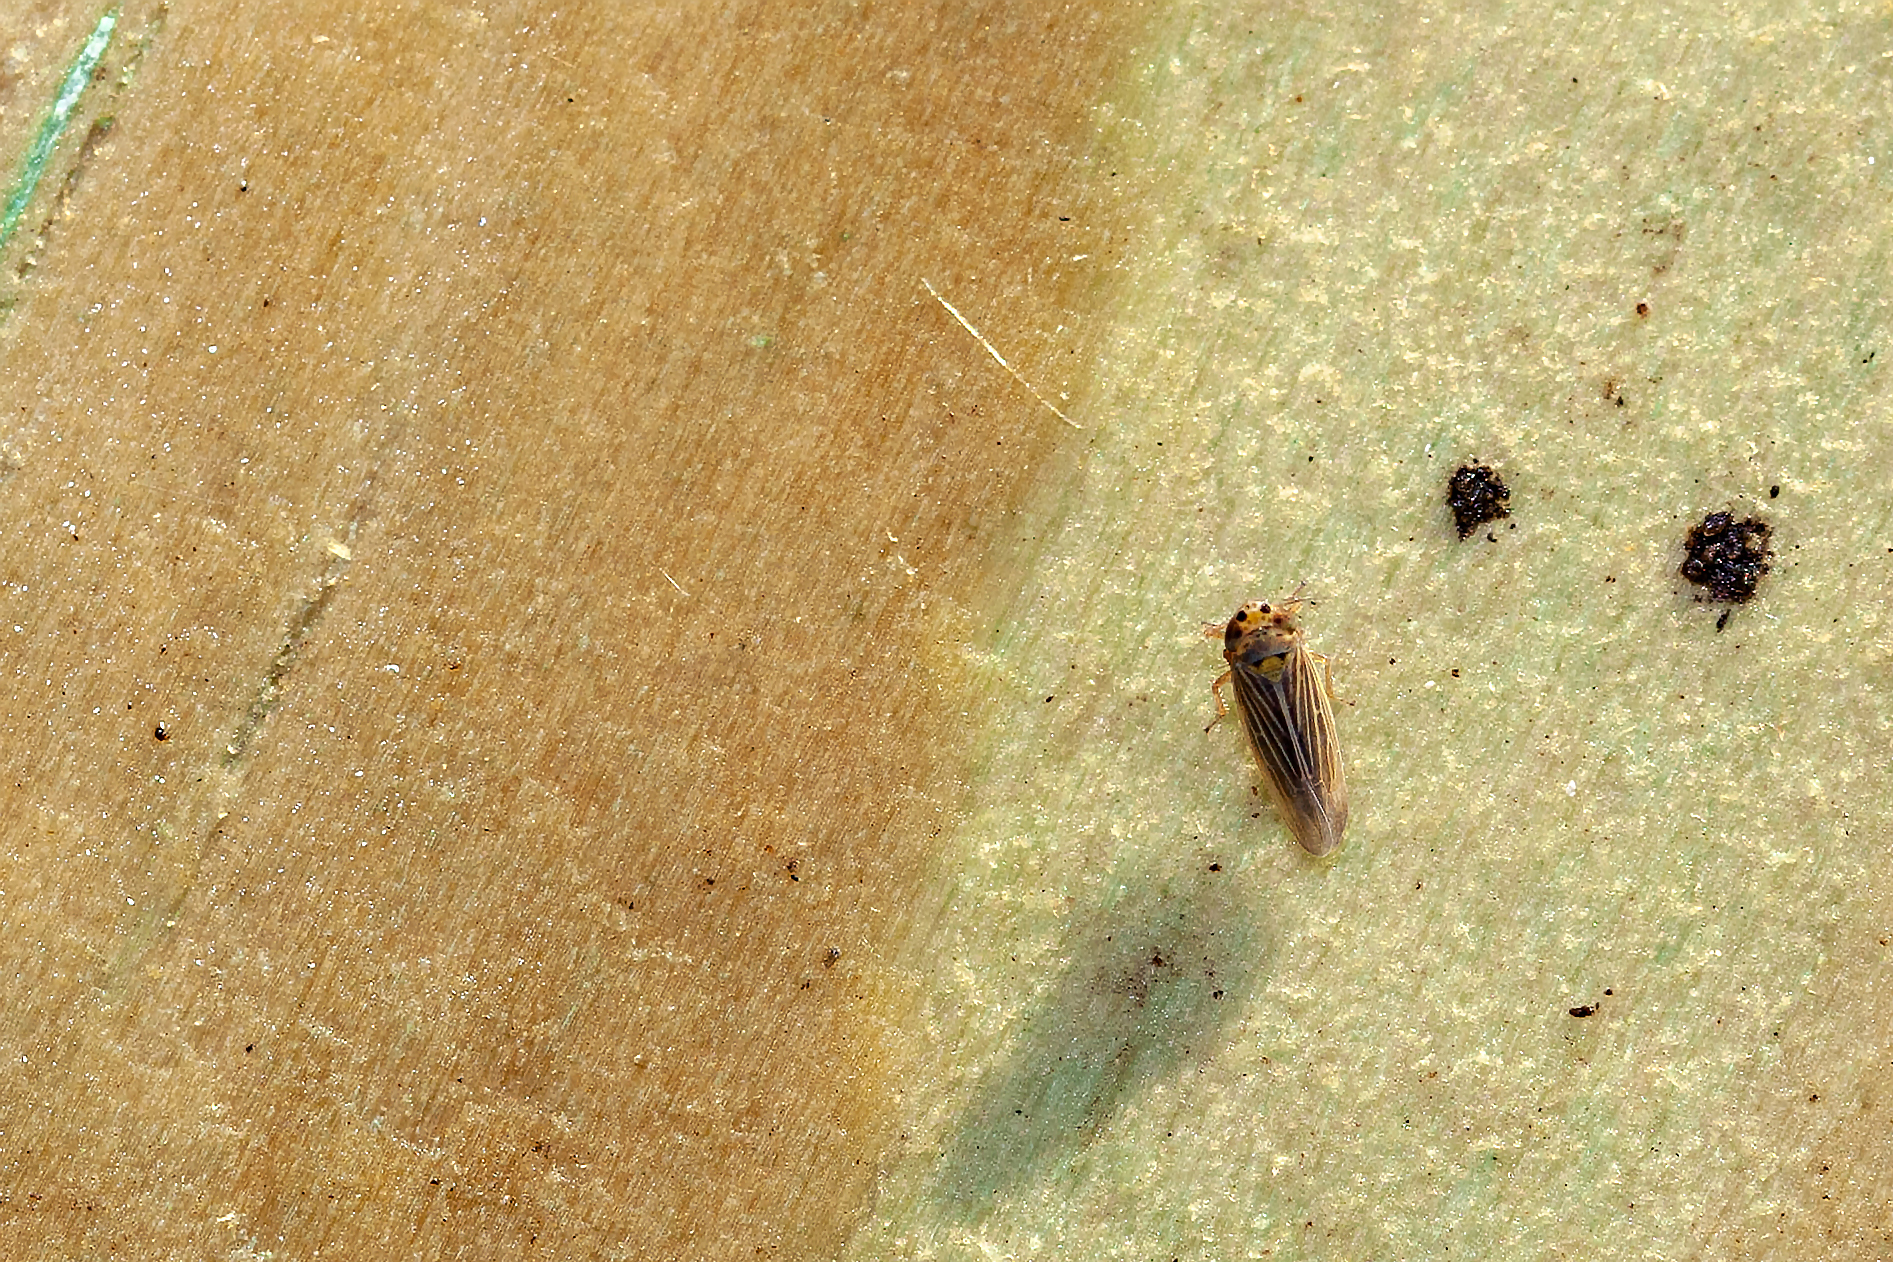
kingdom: Animalia
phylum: Arthropoda
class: Insecta
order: Hemiptera
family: Cicadellidae
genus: Graminella
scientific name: Graminella cognita
